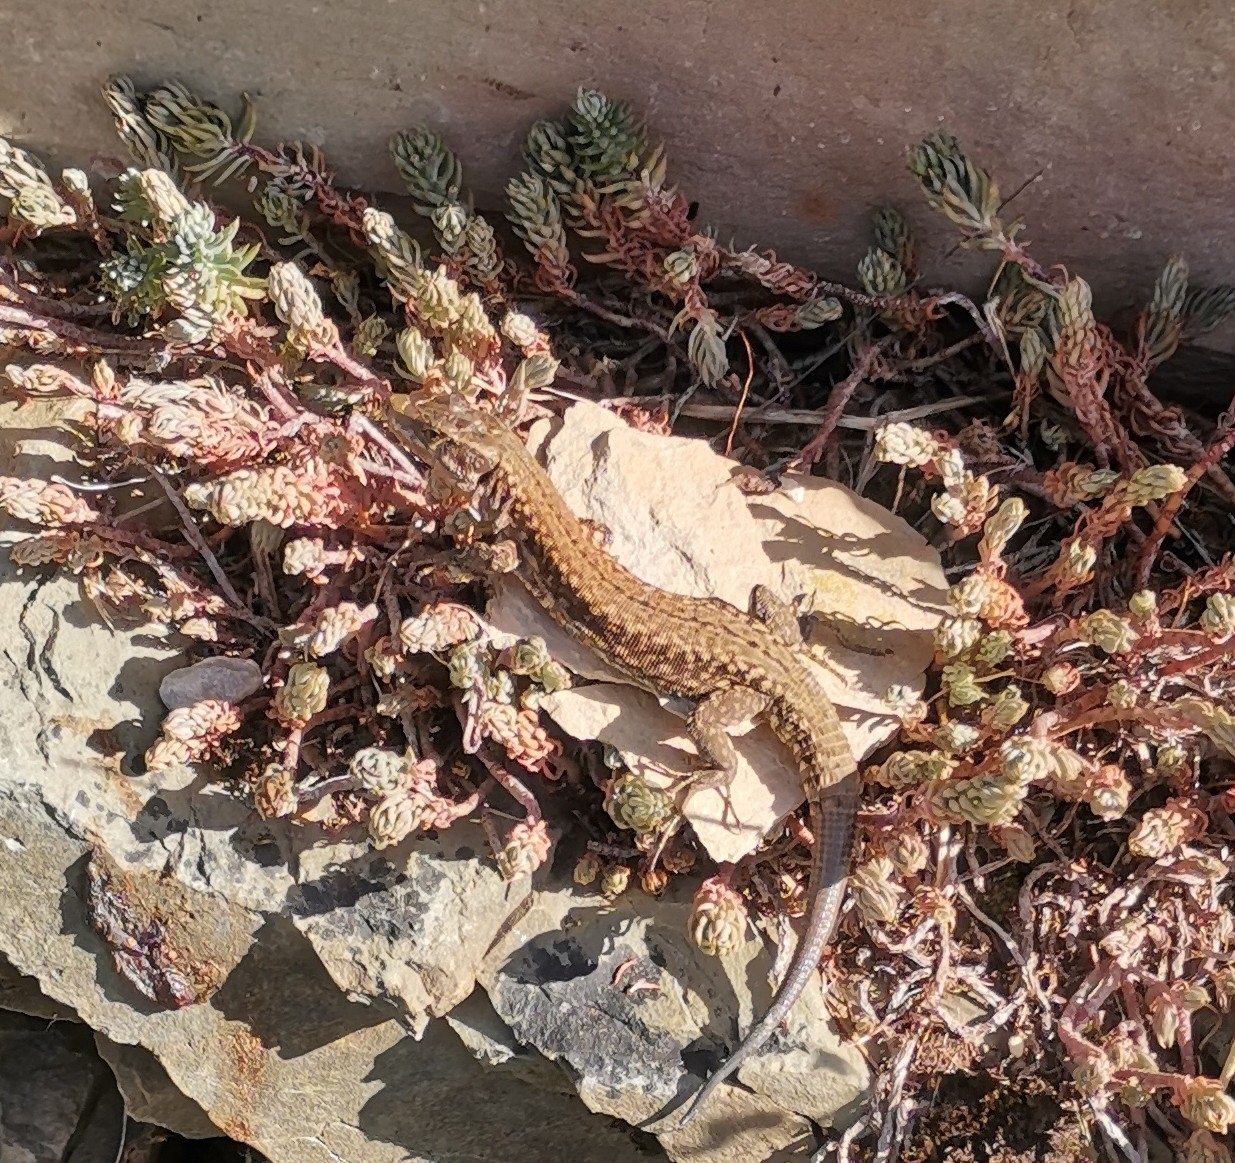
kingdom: Animalia
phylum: Chordata
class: Squamata
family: Lacertidae
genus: Podarcis
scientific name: Podarcis muralis
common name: Common wall lizard
